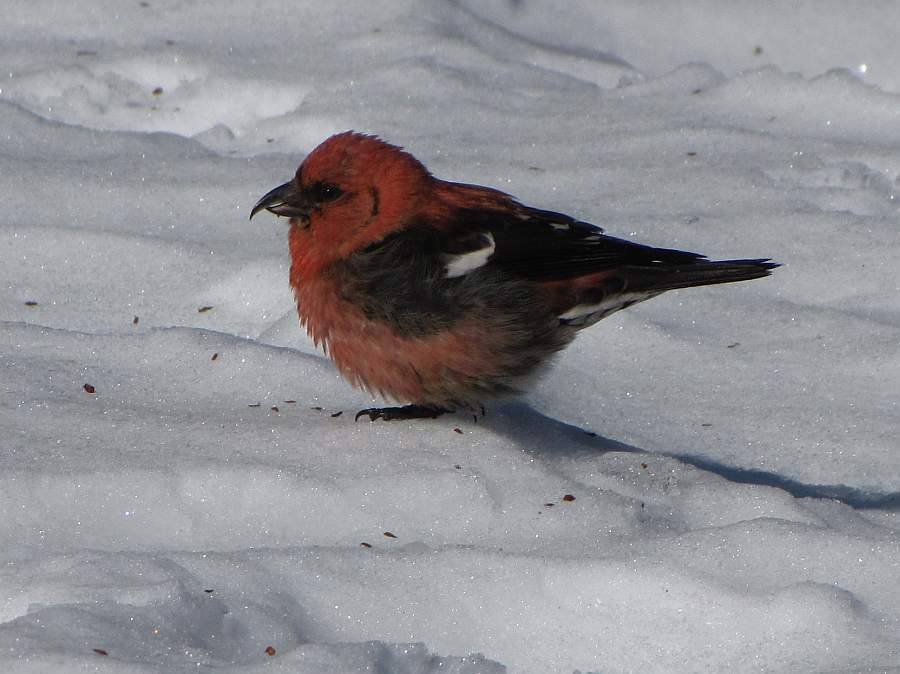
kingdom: Animalia
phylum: Chordata
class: Aves
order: Passeriformes
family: Fringillidae
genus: Loxia
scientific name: Loxia leucoptera
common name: Two-barred crossbill
